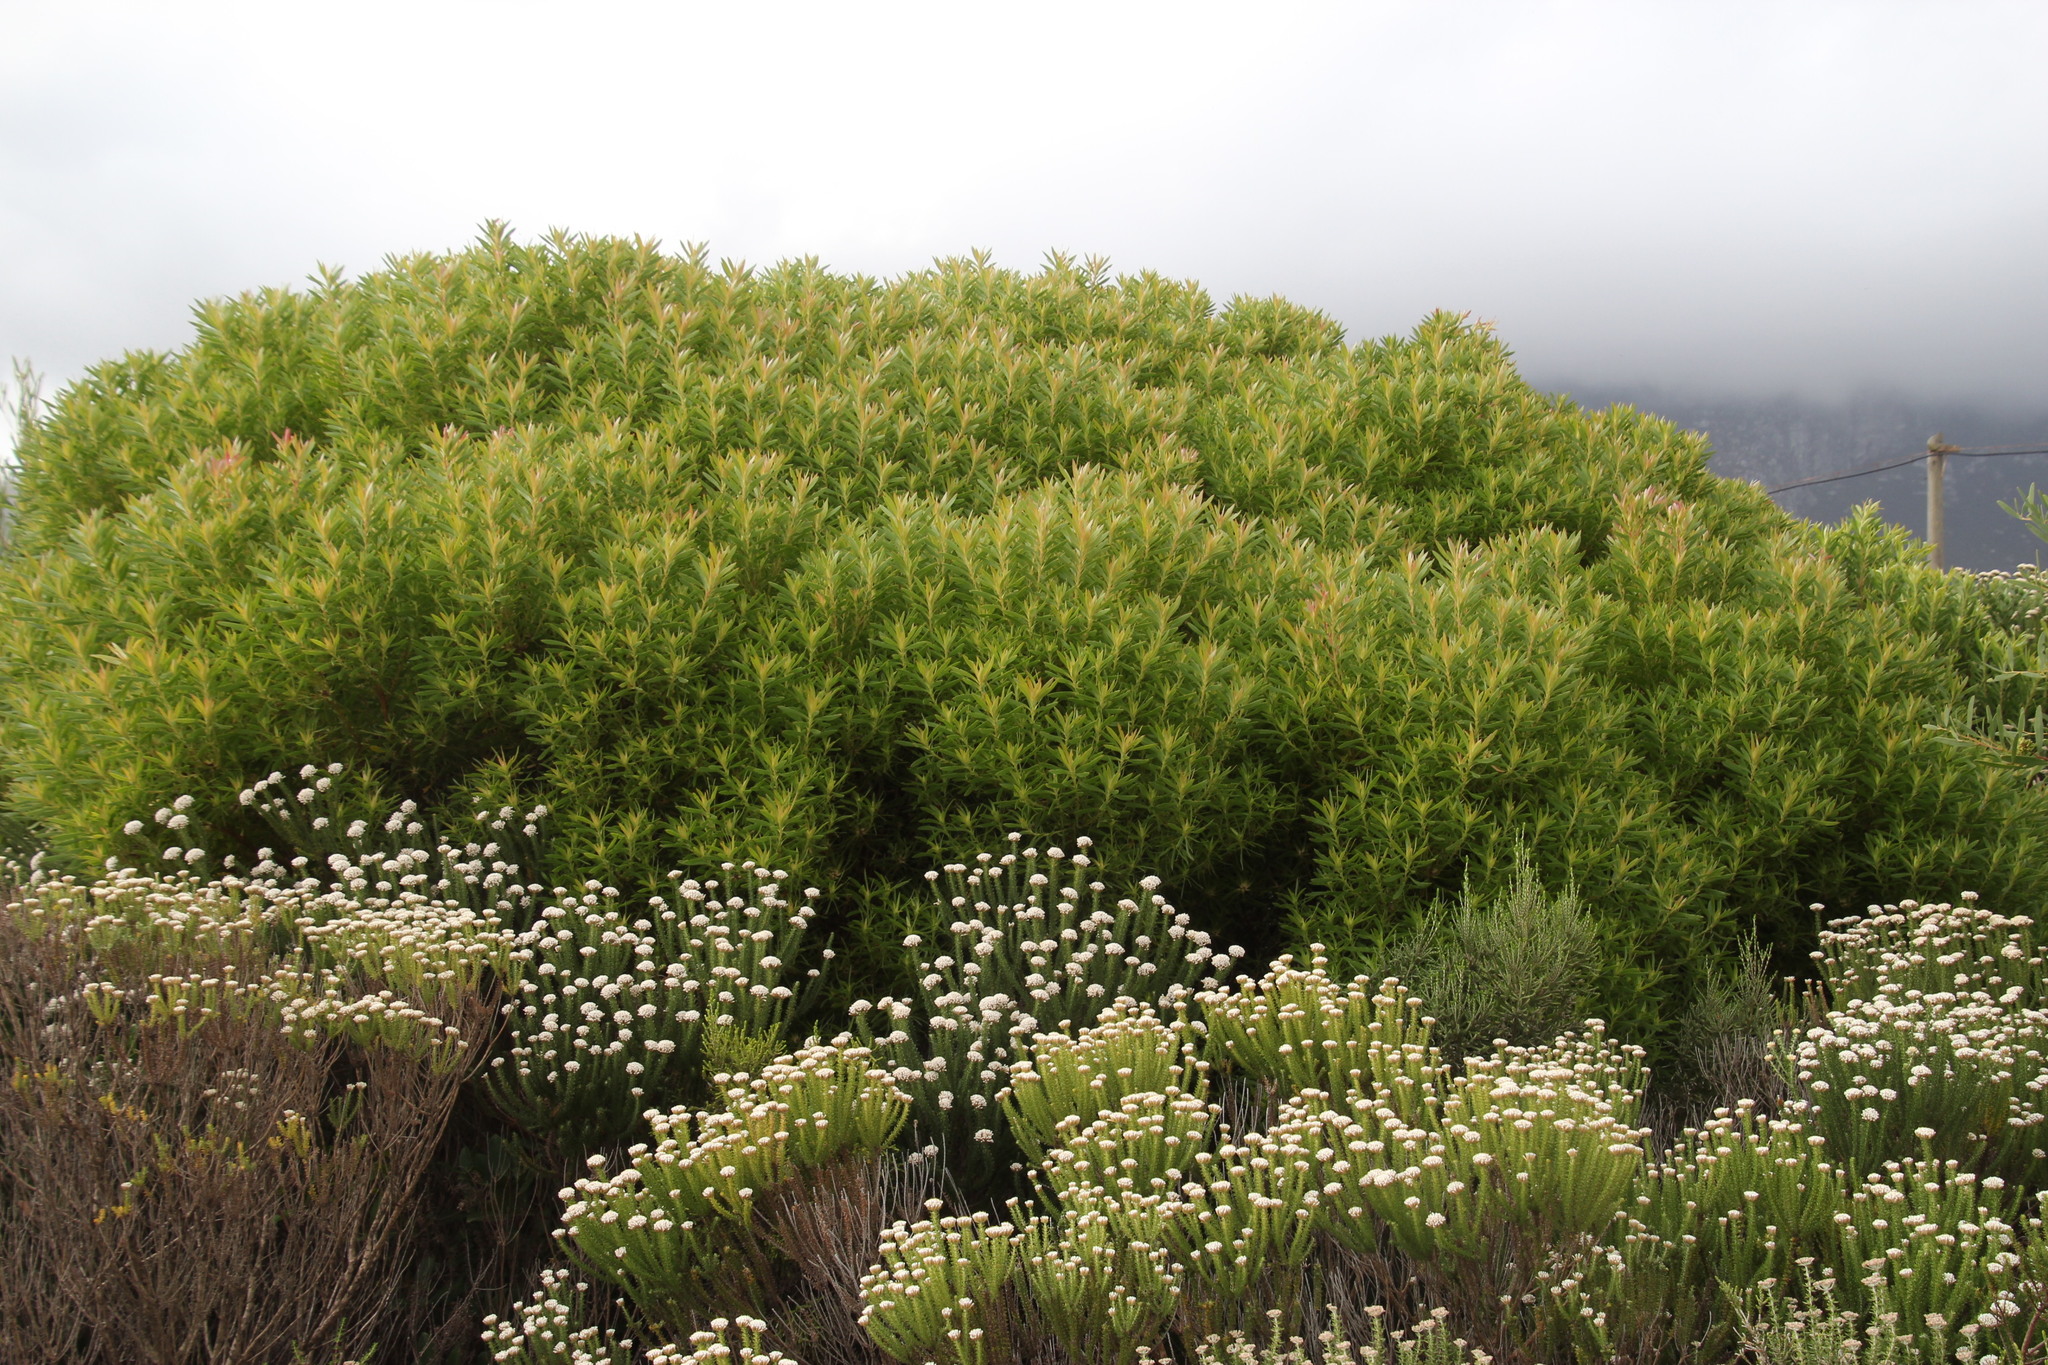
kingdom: Plantae
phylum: Tracheophyta
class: Magnoliopsida
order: Proteales
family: Proteaceae
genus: Leucadendron
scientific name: Leucadendron coniferum
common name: Dune conebush
